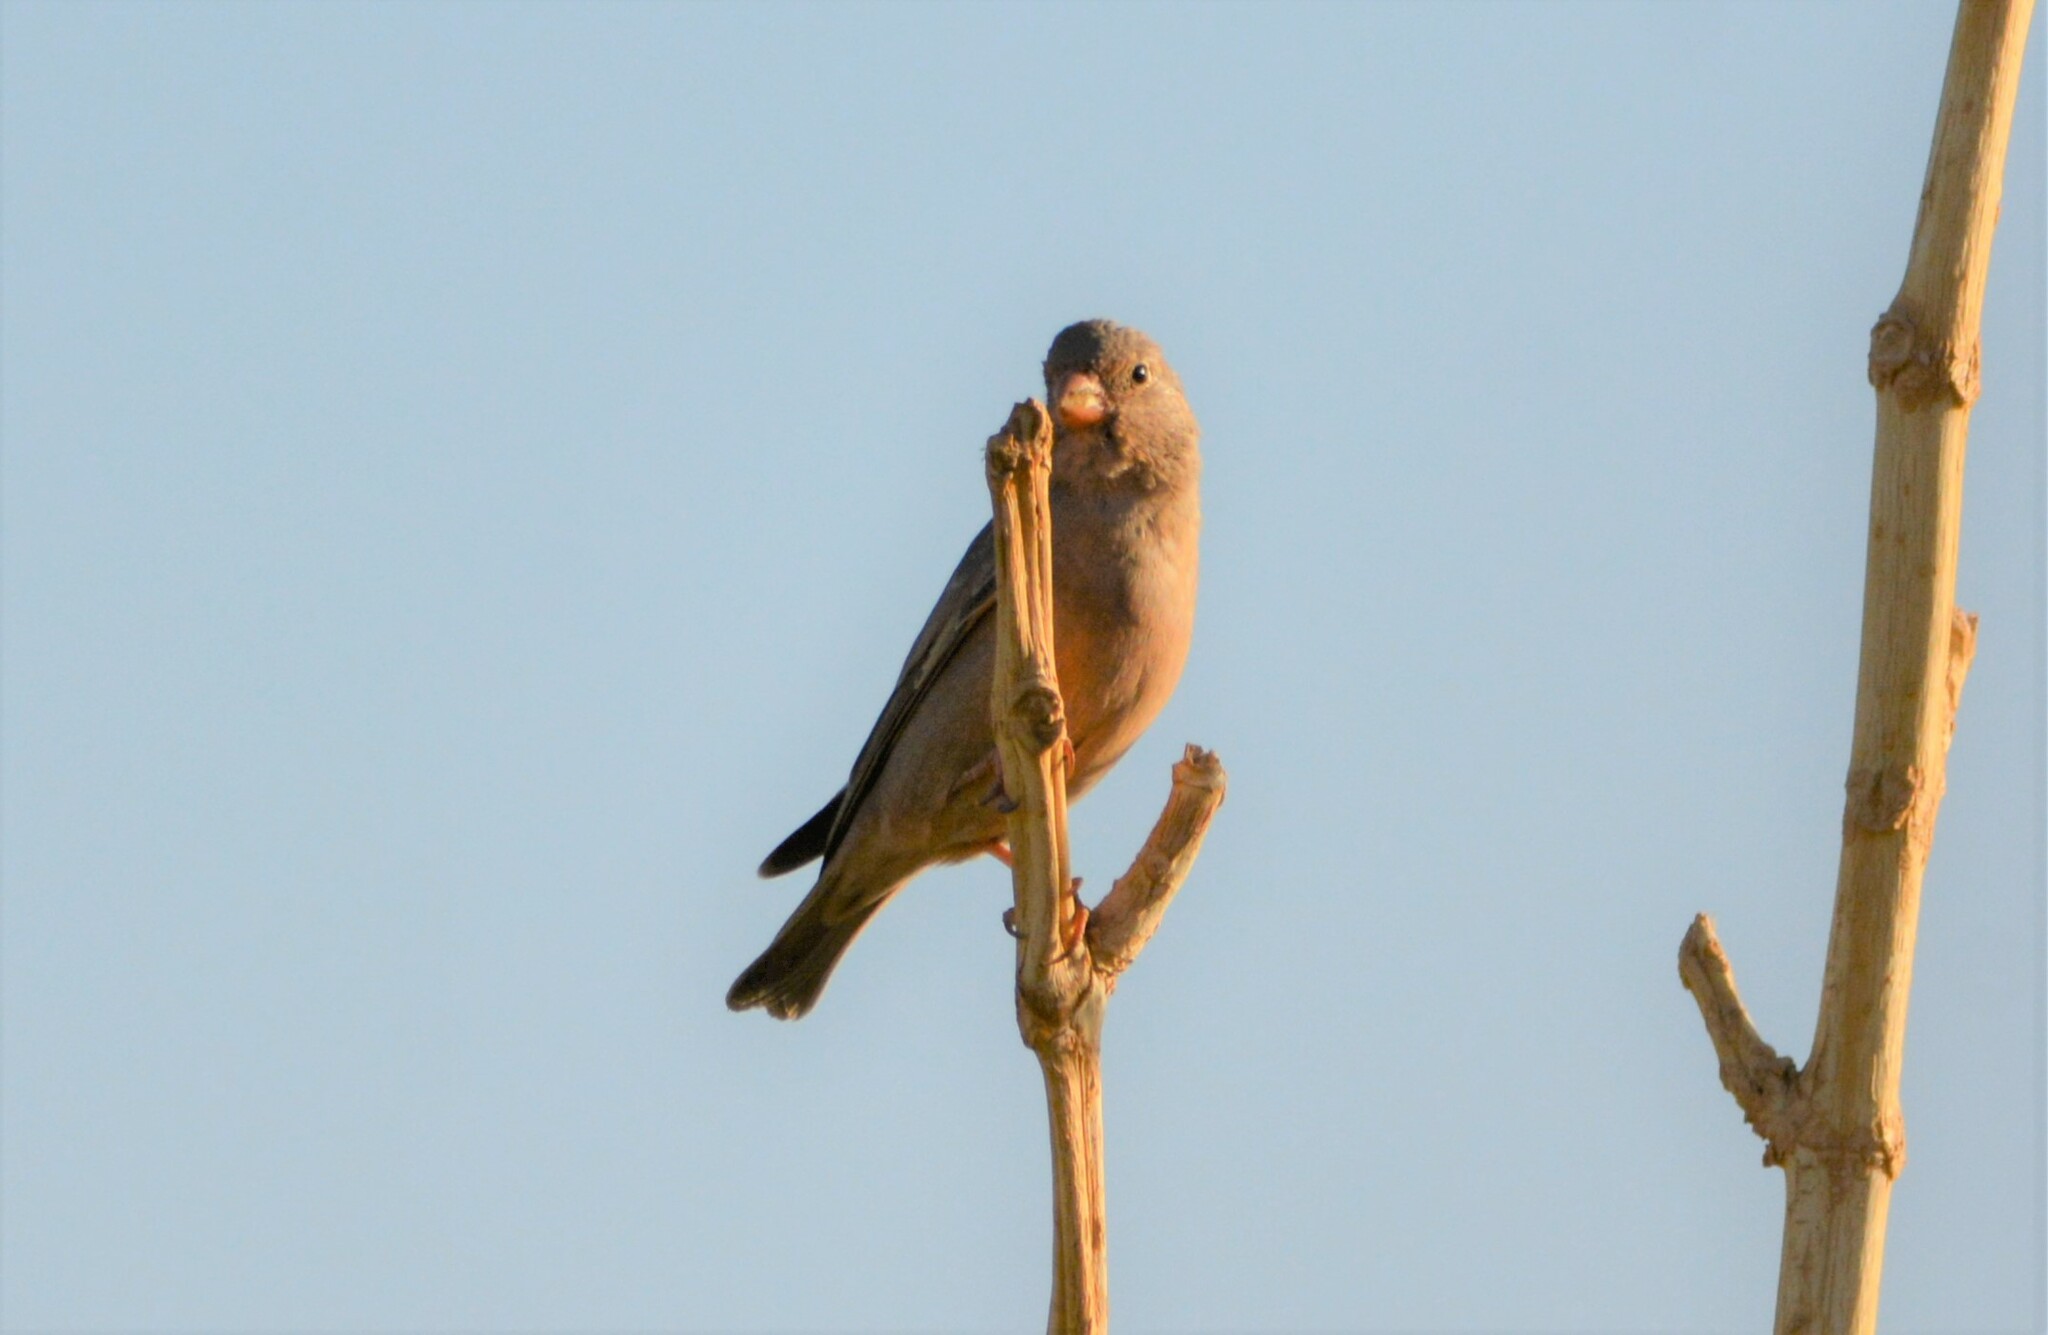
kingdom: Animalia
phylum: Chordata
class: Aves
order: Passeriformes
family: Fringillidae
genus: Bucanetes
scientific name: Bucanetes githagineus
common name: Trumpeter finch
